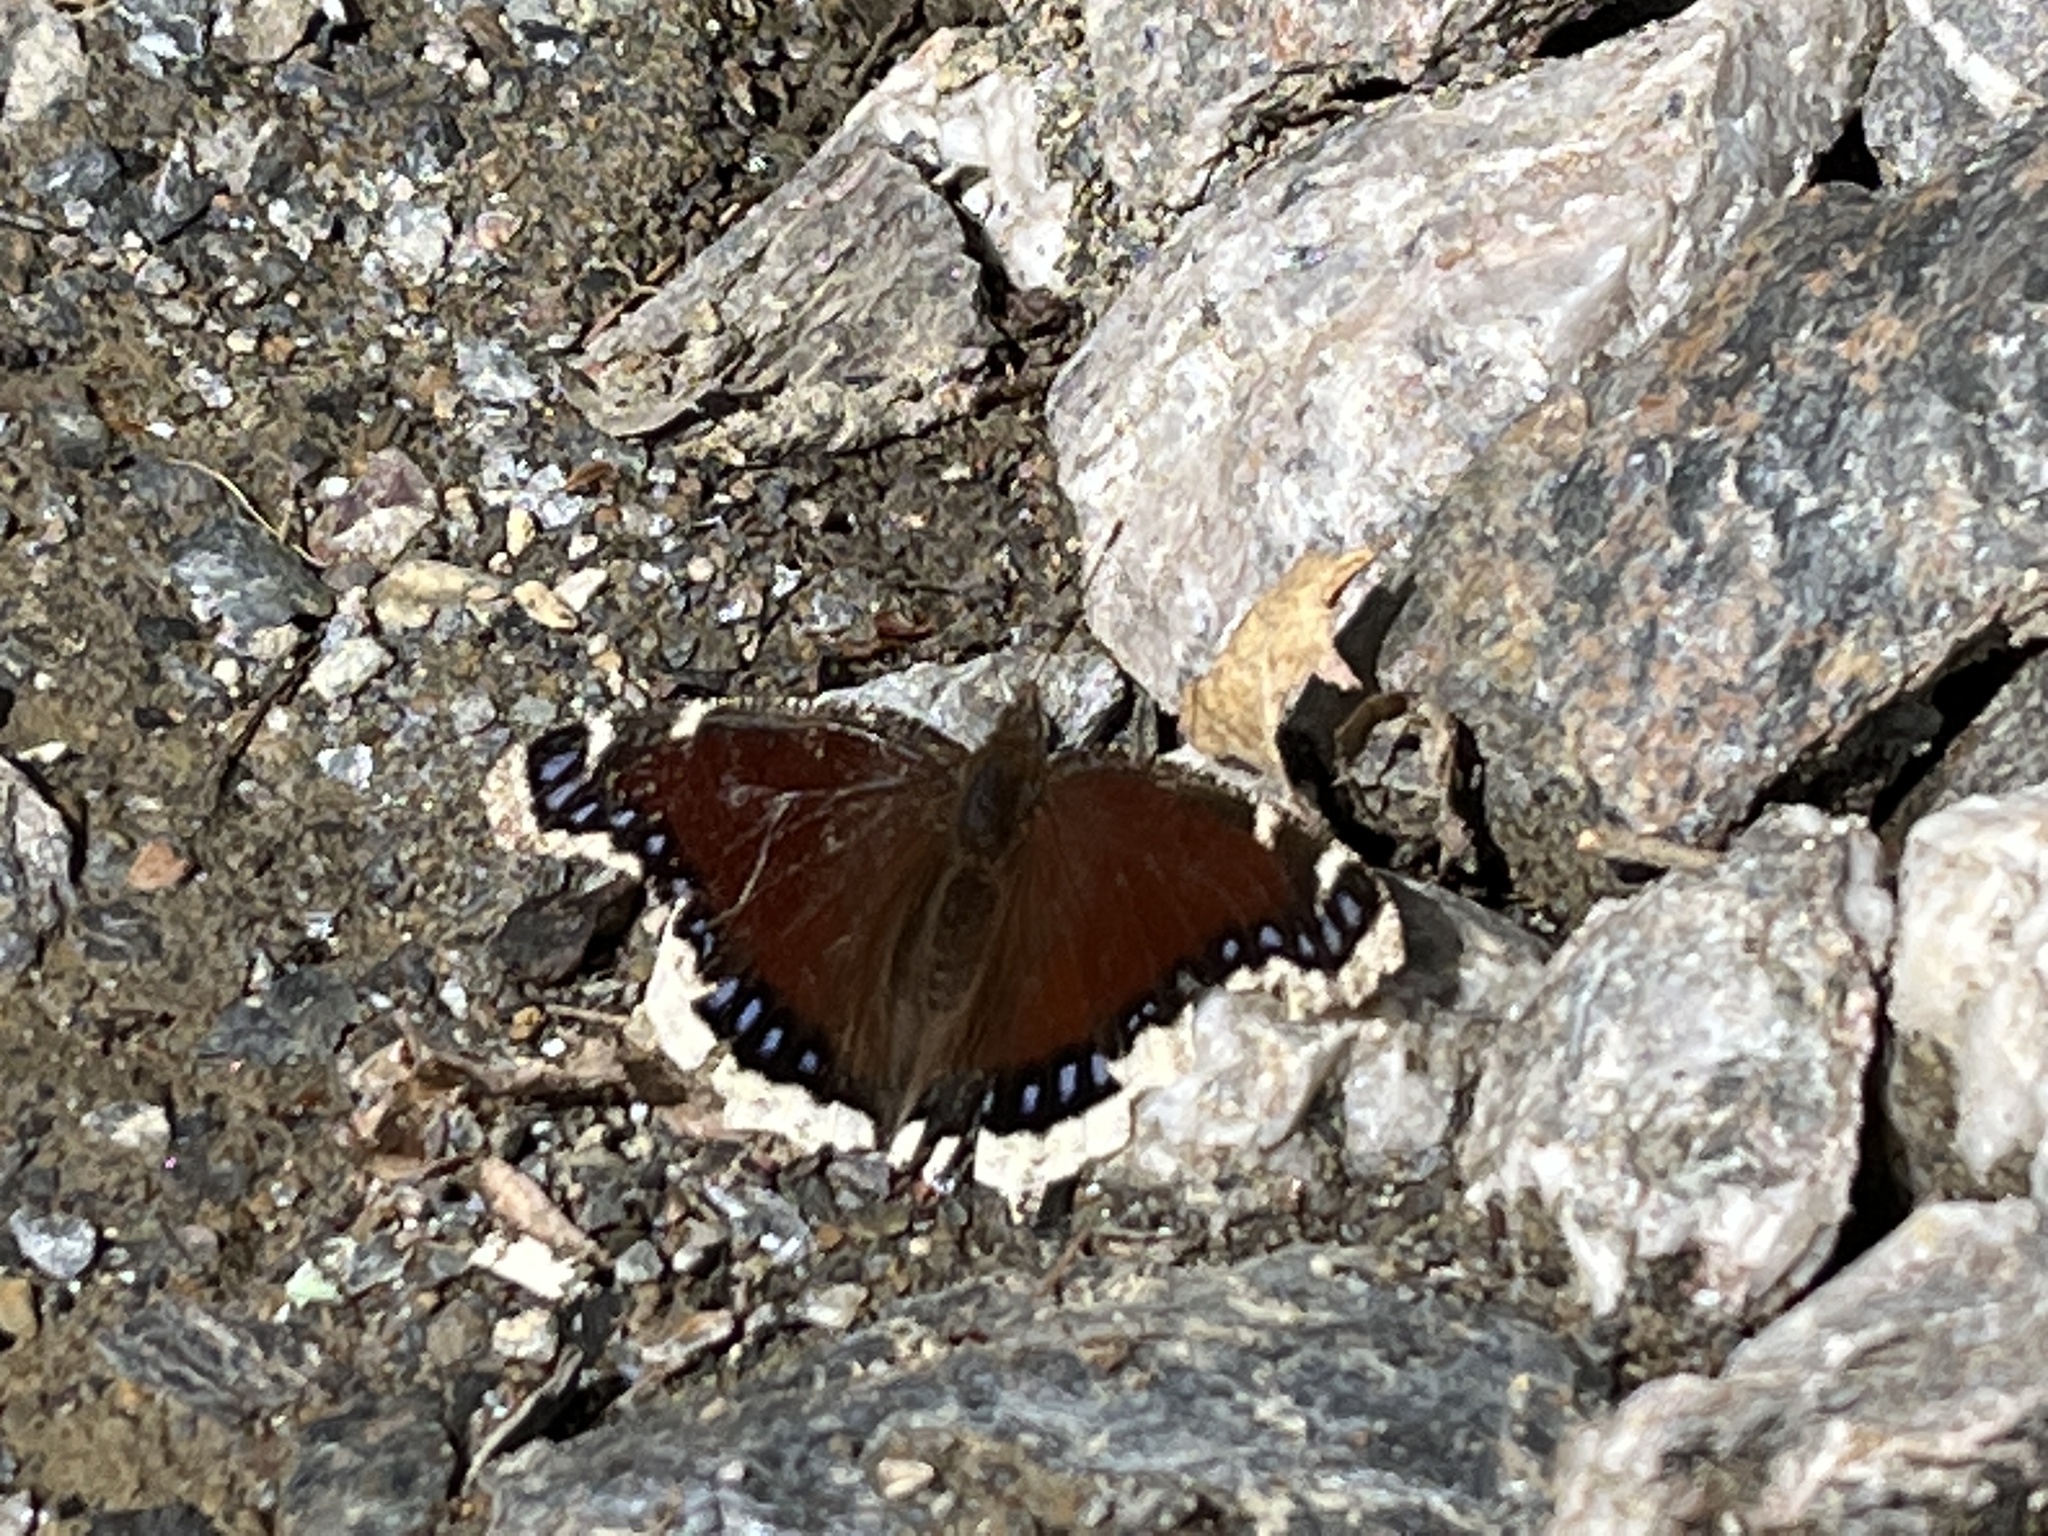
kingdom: Animalia
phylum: Arthropoda
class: Insecta
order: Lepidoptera
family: Nymphalidae
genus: Nymphalis
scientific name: Nymphalis antiopa
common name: Camberwell beauty
